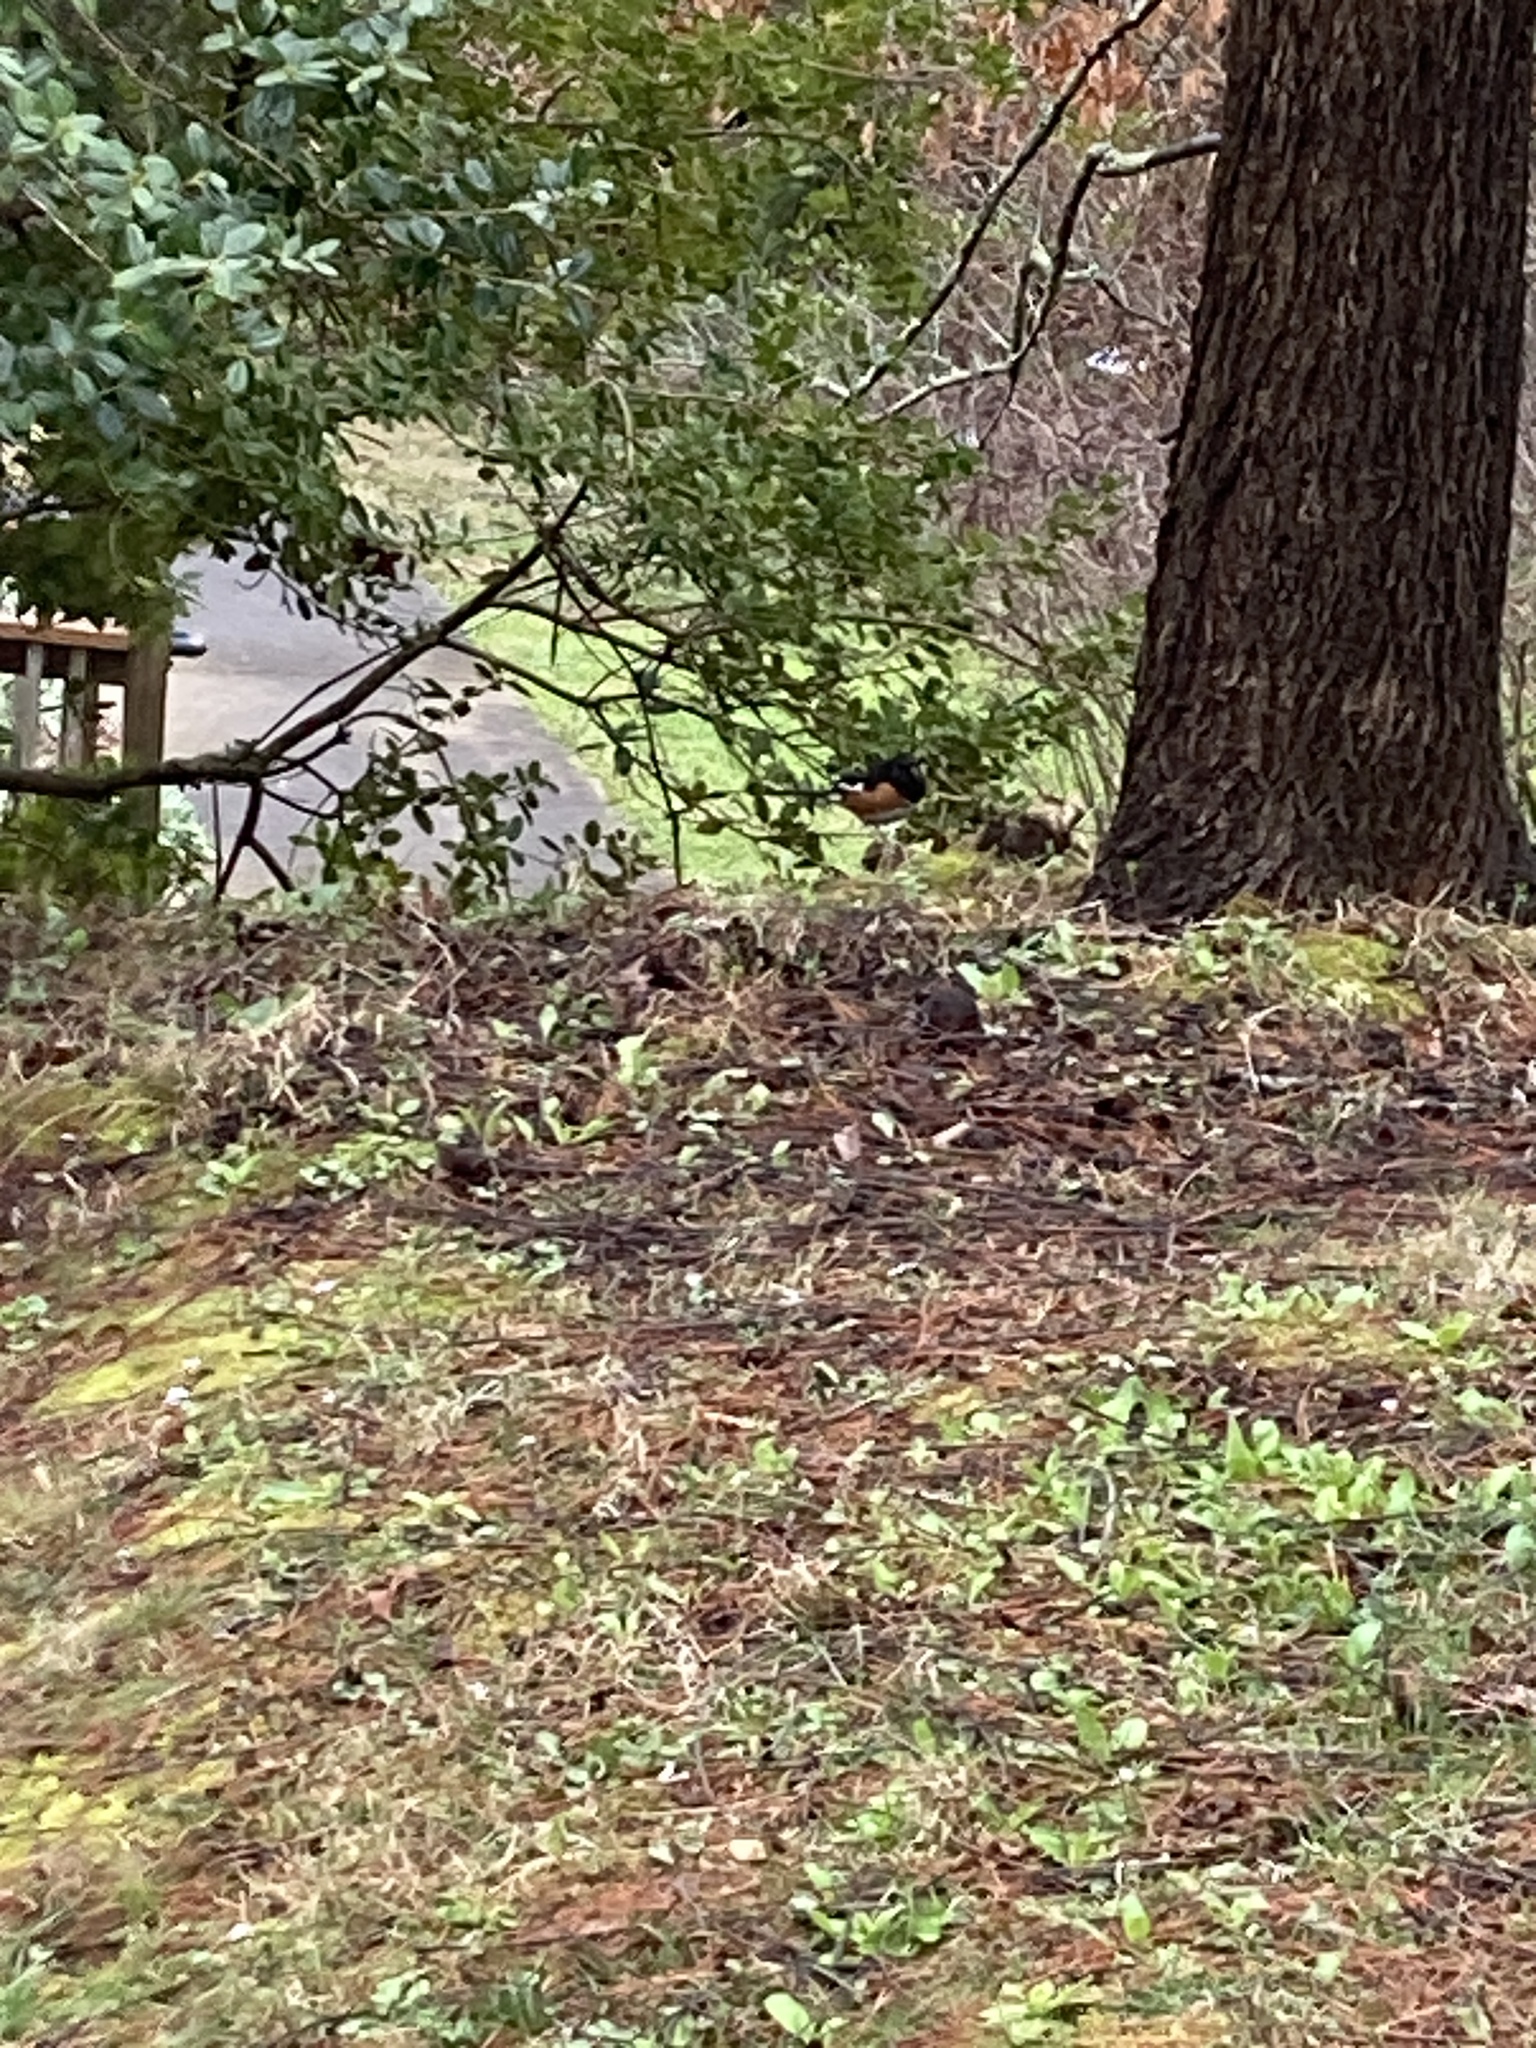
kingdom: Animalia
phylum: Chordata
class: Aves
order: Passeriformes
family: Passerellidae
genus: Pipilo
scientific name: Pipilo erythrophthalmus
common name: Eastern towhee
